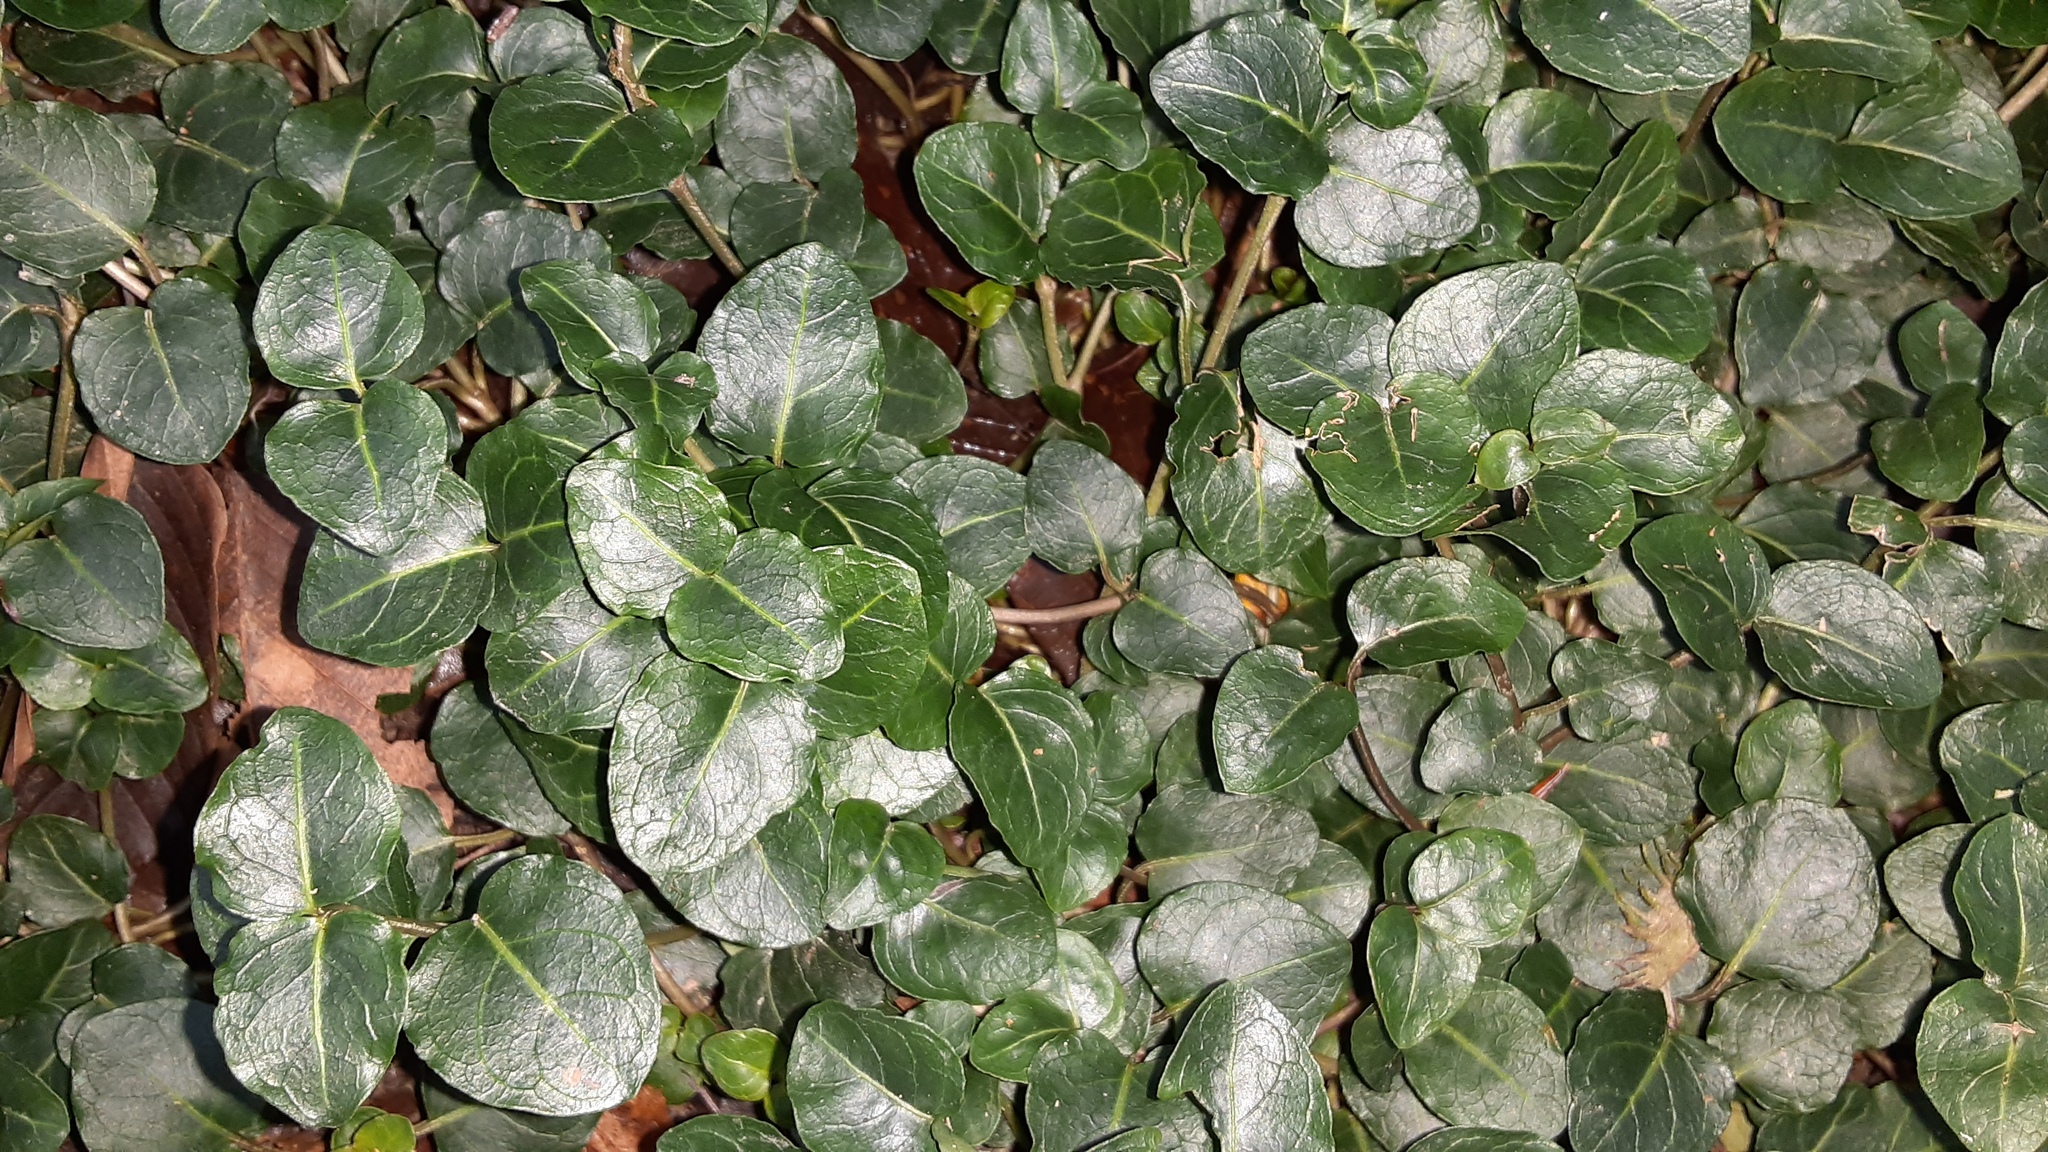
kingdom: Plantae
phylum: Tracheophyta
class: Magnoliopsida
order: Gentianales
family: Rubiaceae
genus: Mitchella
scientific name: Mitchella repens
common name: Partridge-berry
